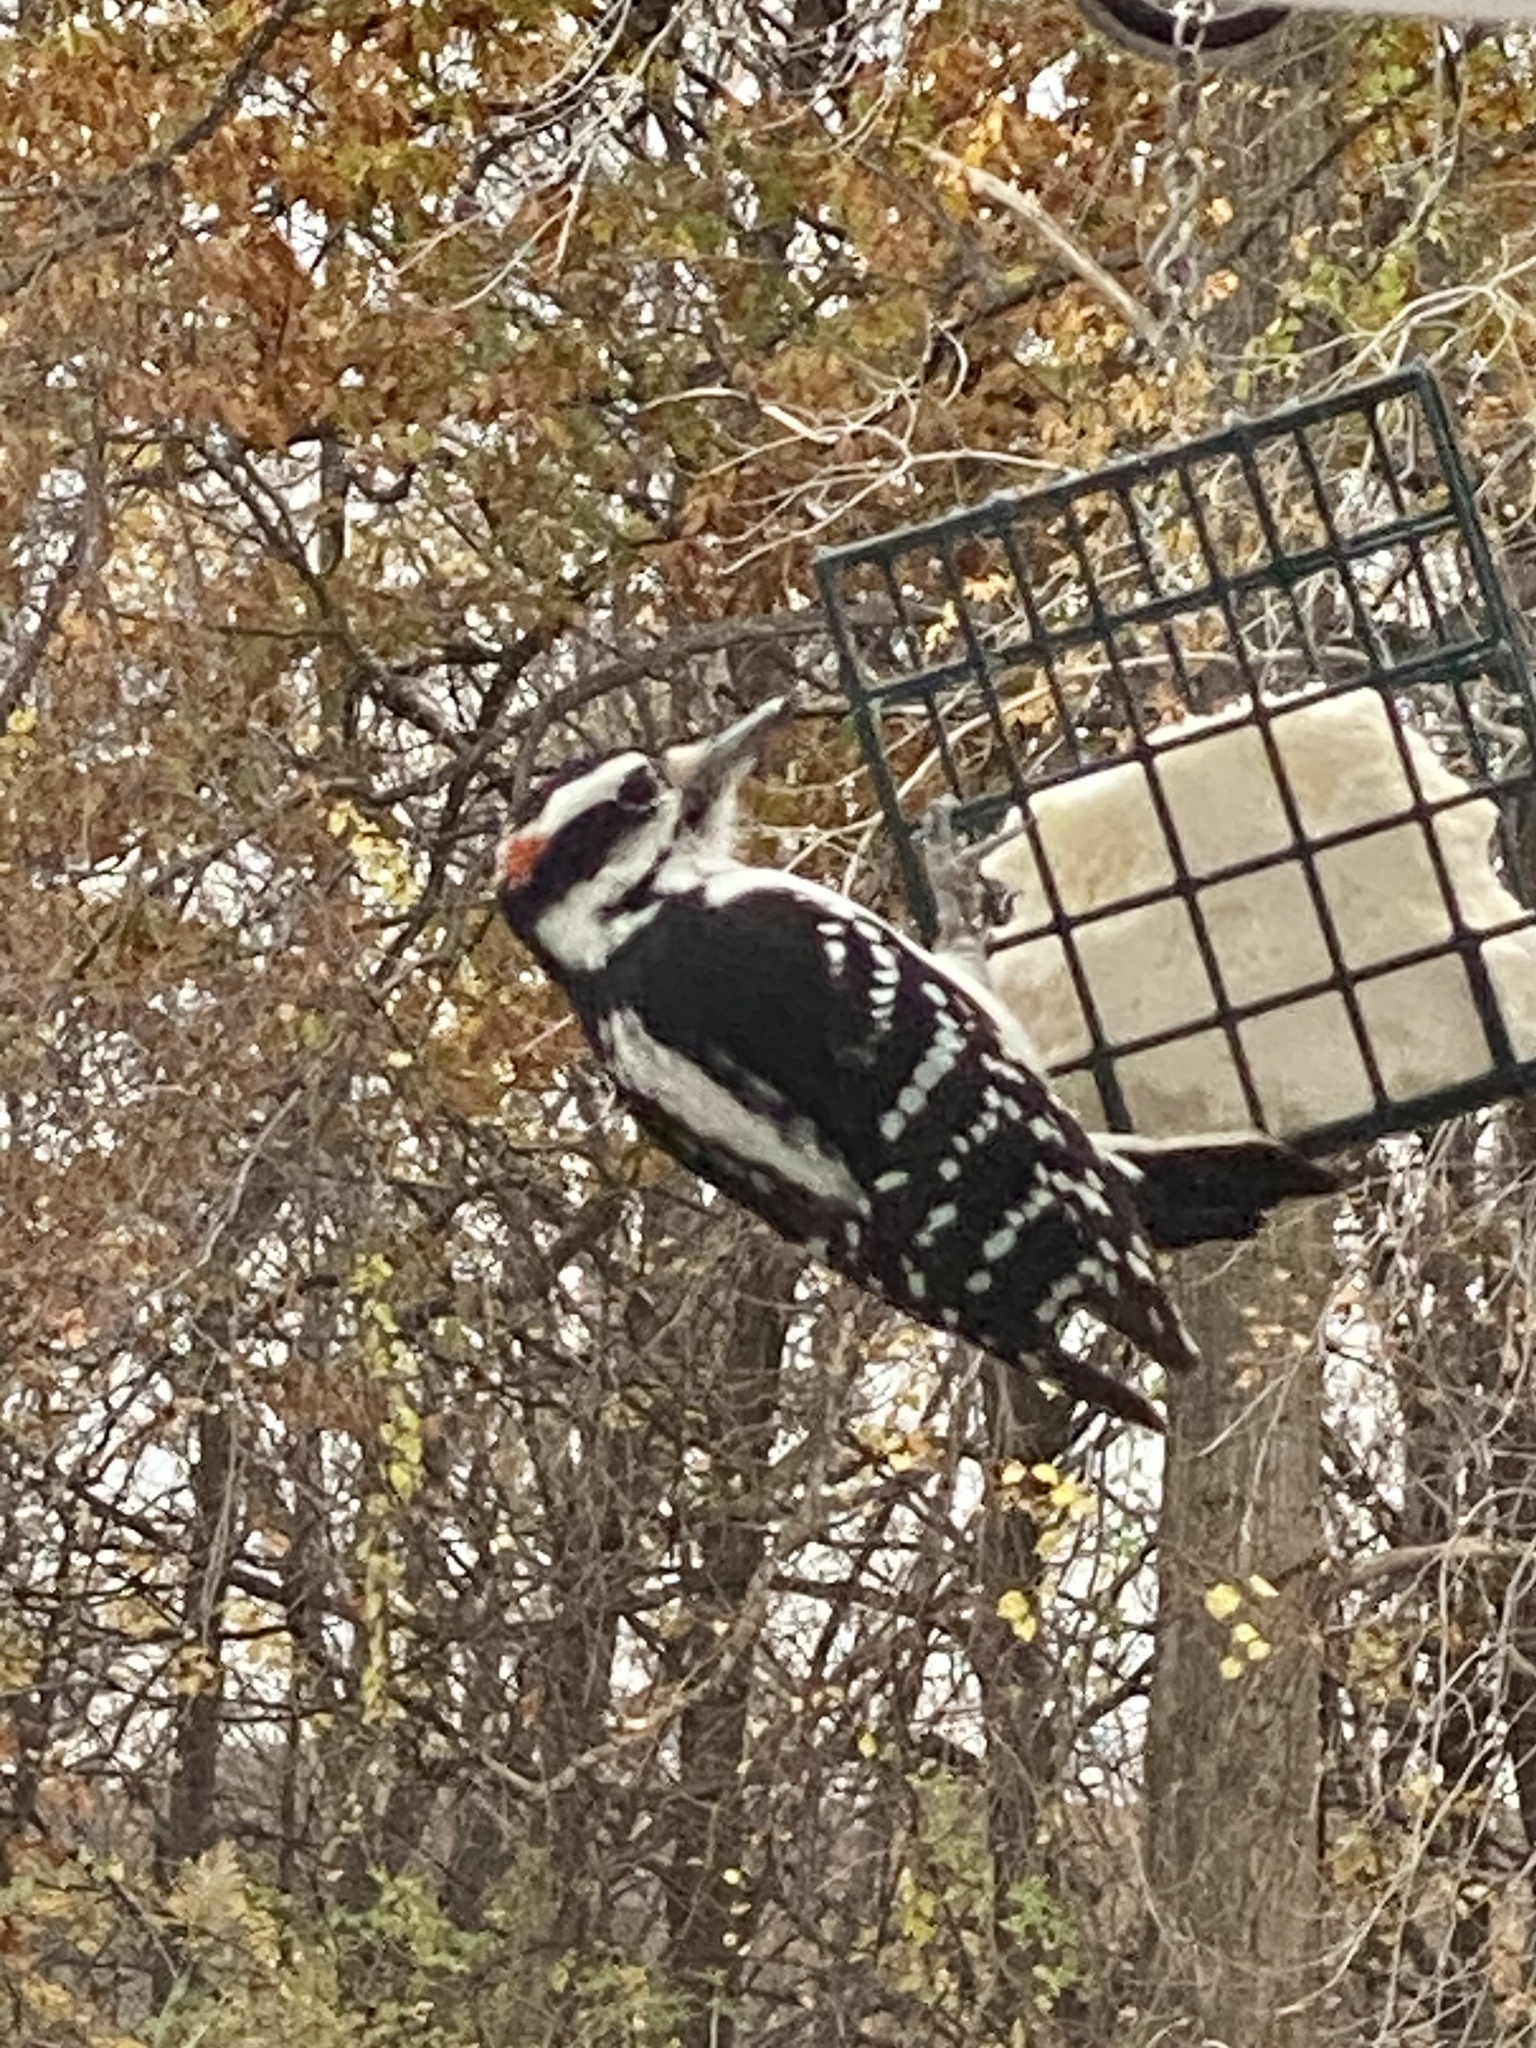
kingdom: Animalia
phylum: Chordata
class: Aves
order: Piciformes
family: Picidae
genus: Leuconotopicus
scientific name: Leuconotopicus villosus
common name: Hairy woodpecker
